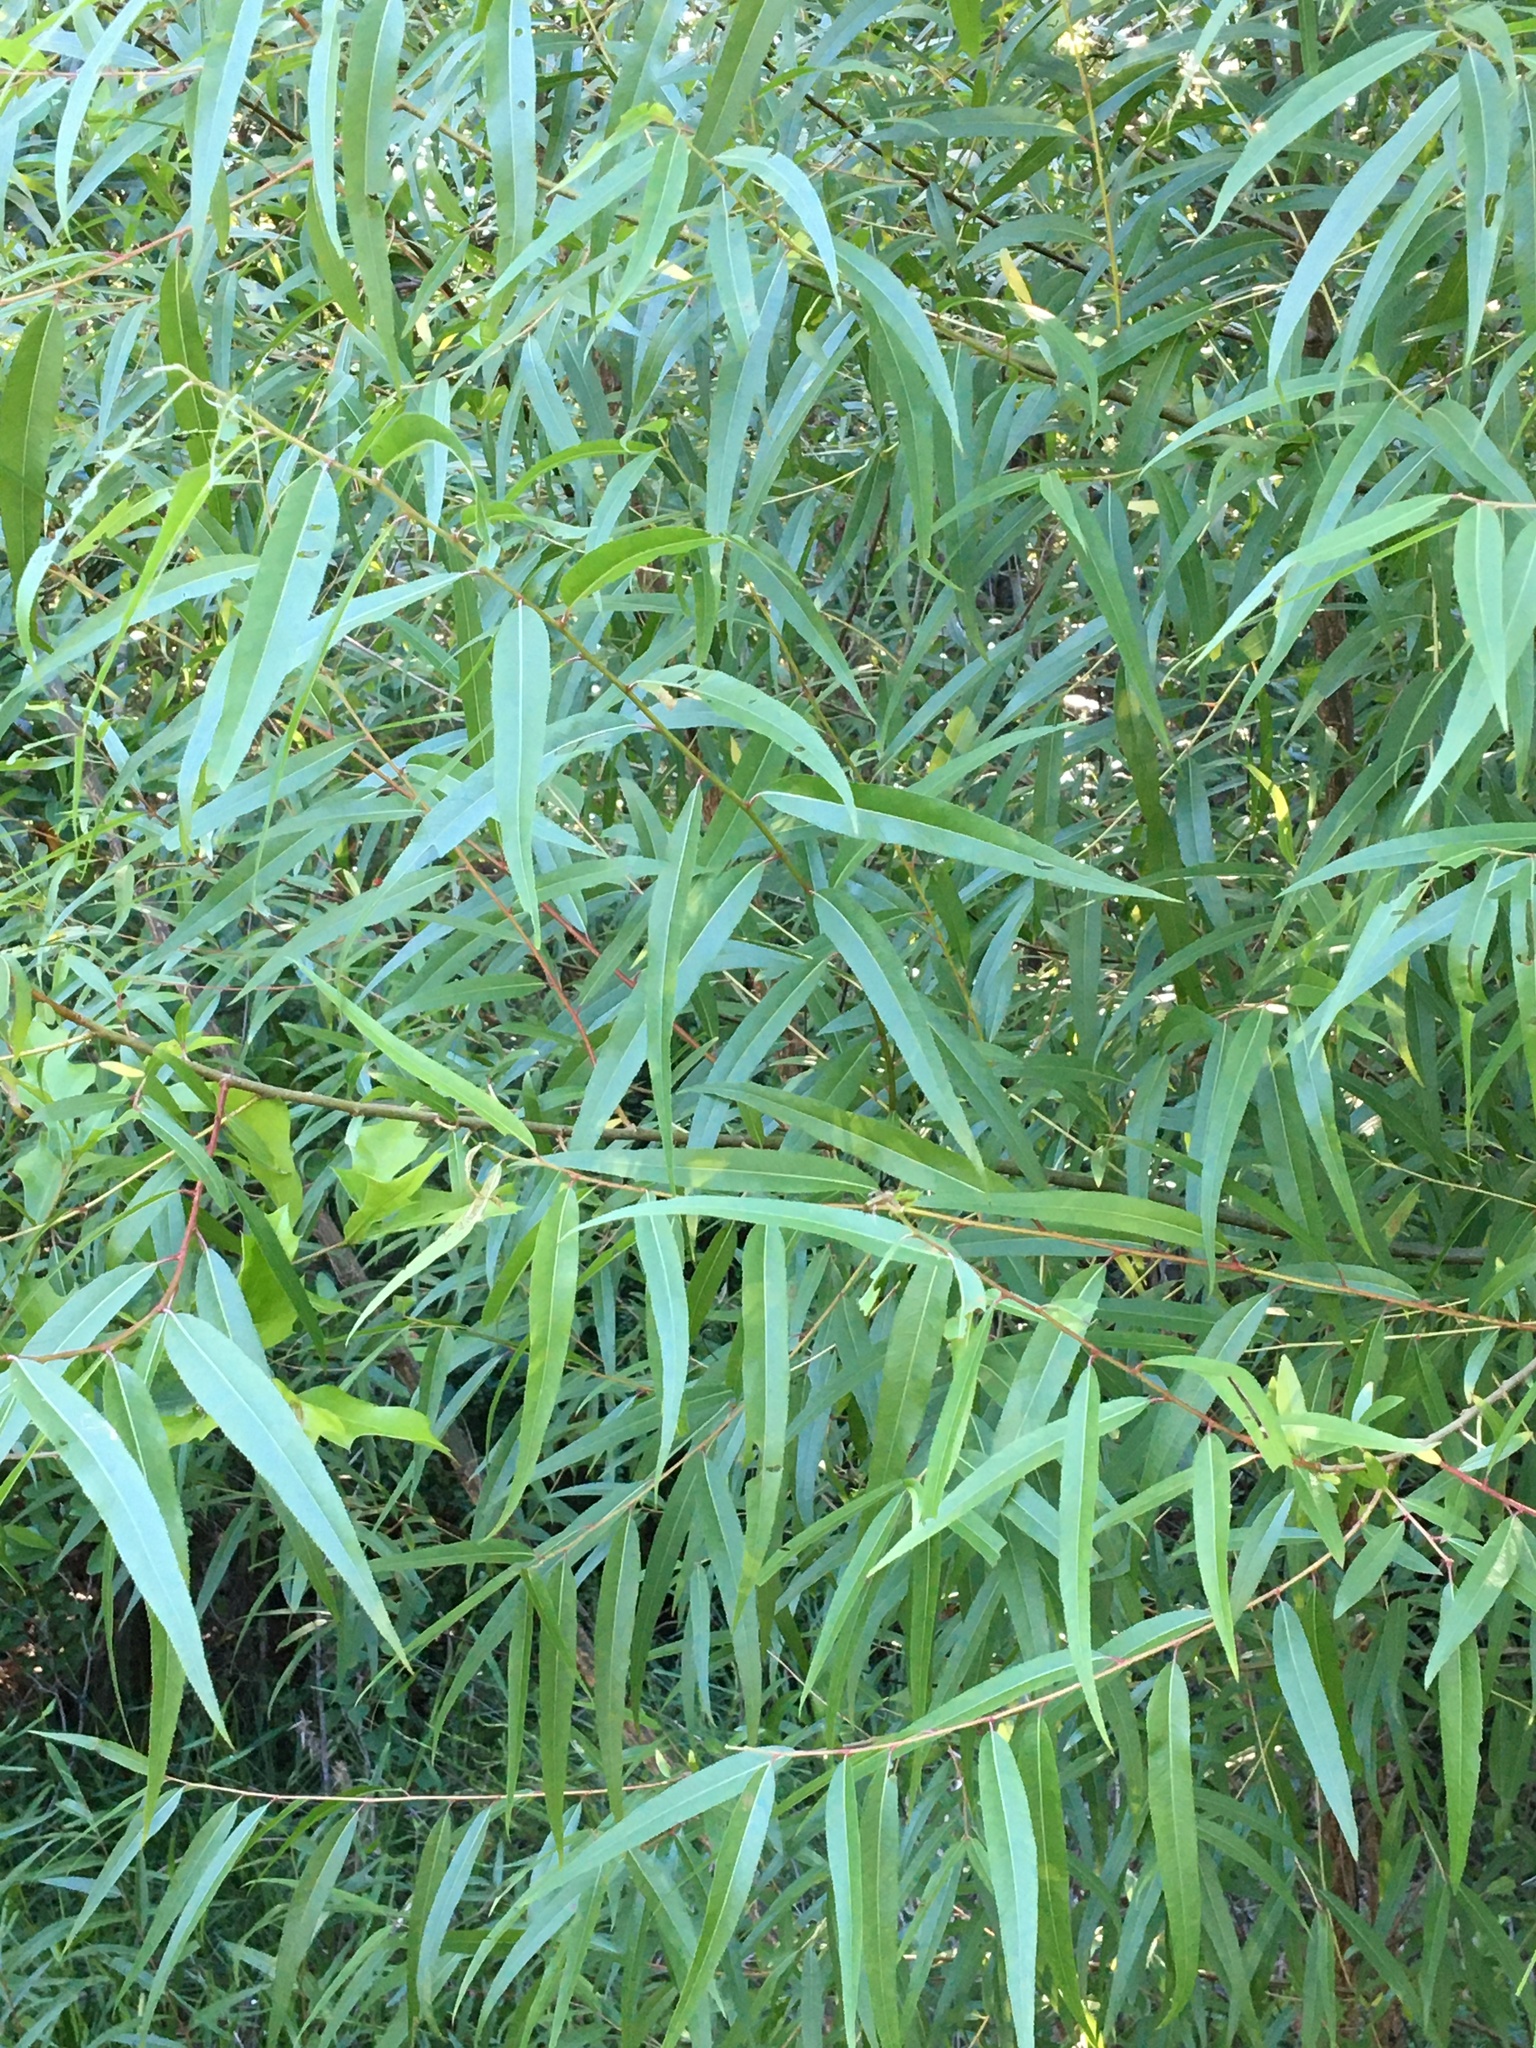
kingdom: Plantae
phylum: Tracheophyta
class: Magnoliopsida
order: Malpighiales
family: Salicaceae
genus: Salix
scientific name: Salix nigra
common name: Black willow
